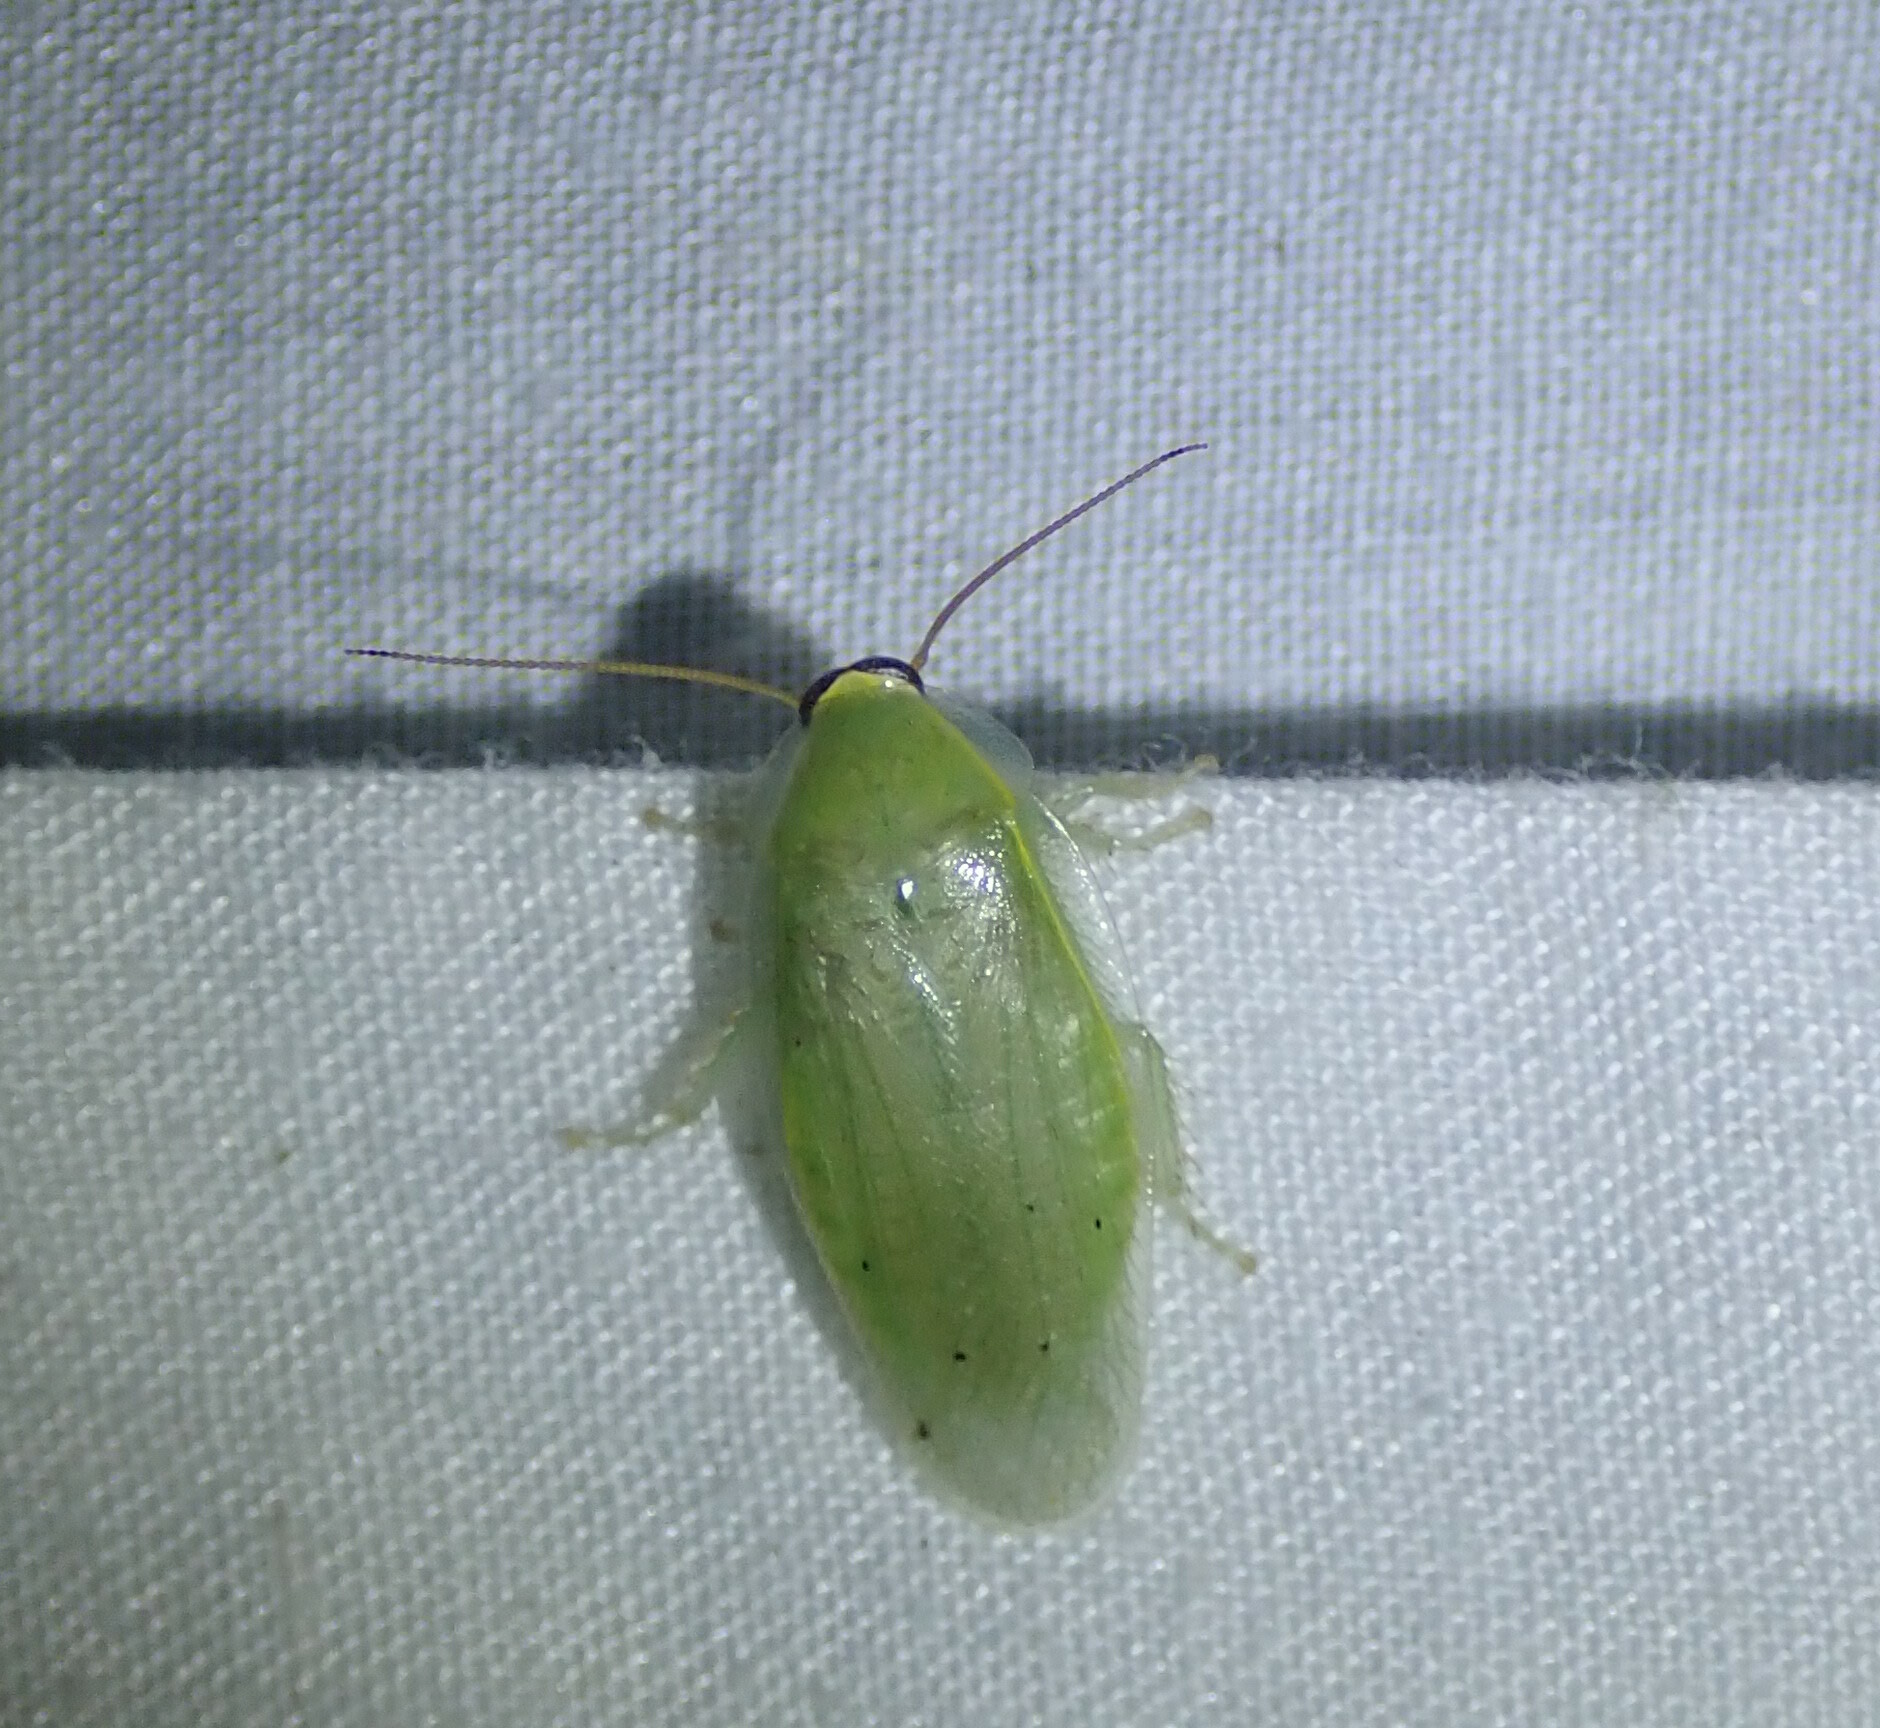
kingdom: Animalia
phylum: Arthropoda
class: Insecta
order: Blattodea
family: Blaberidae
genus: Panchlora
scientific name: Panchlora nivea
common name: Cuban cockroach
